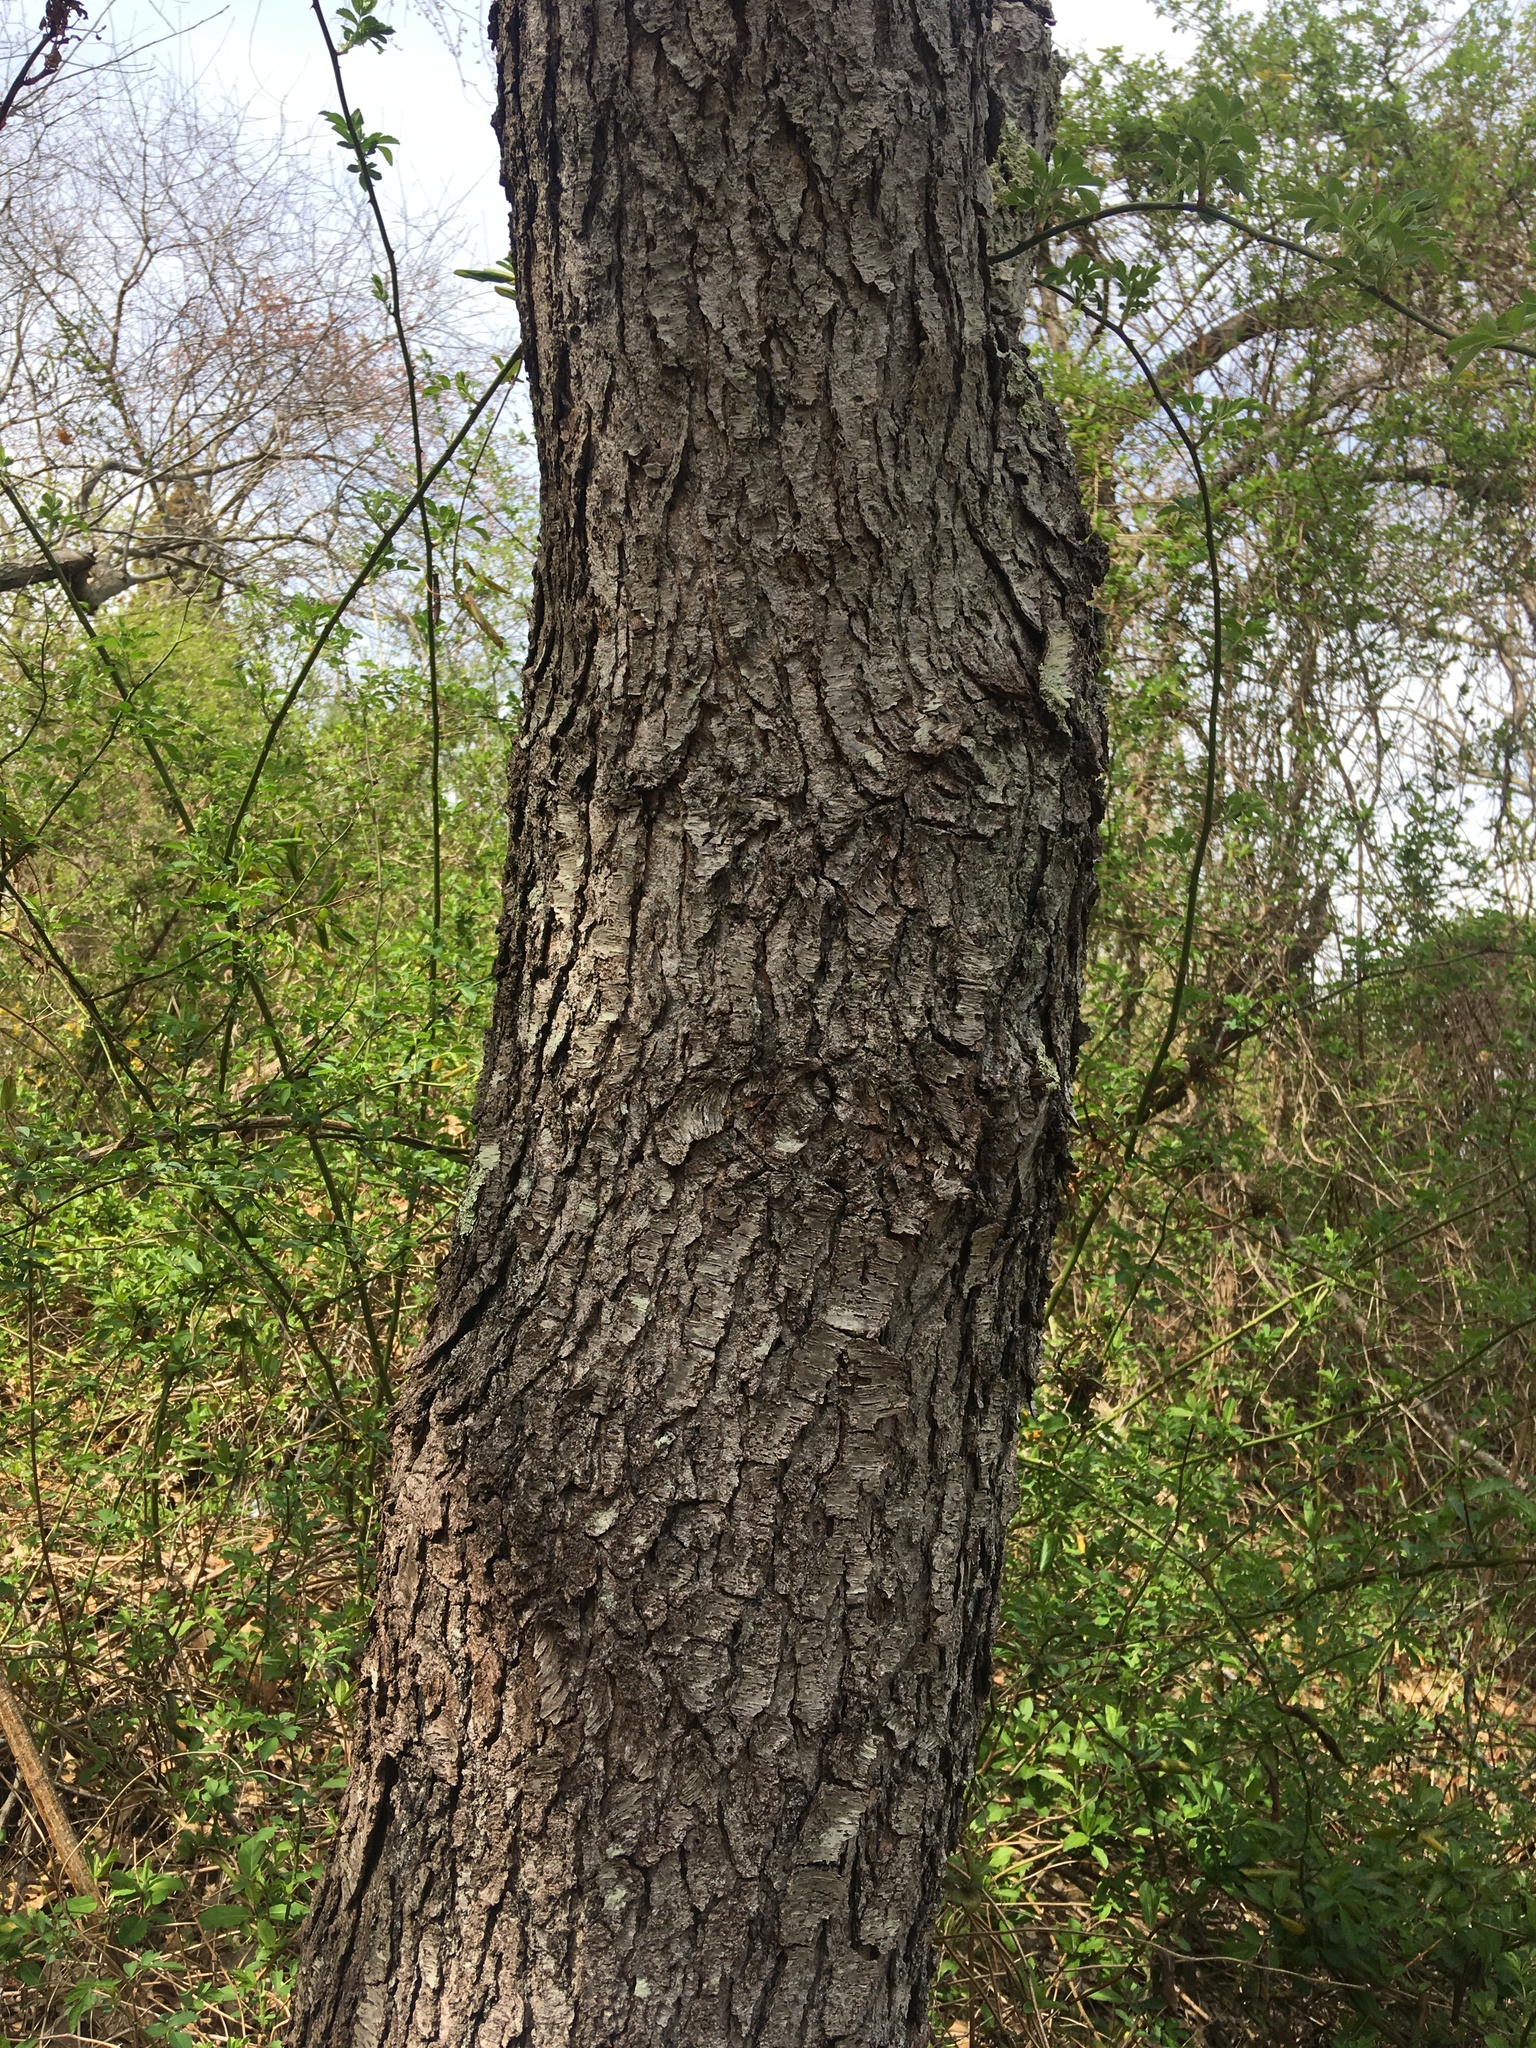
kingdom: Plantae
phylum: Tracheophyta
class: Magnoliopsida
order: Rosales
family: Rosaceae
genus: Prunus
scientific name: Prunus serotina
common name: Black cherry
